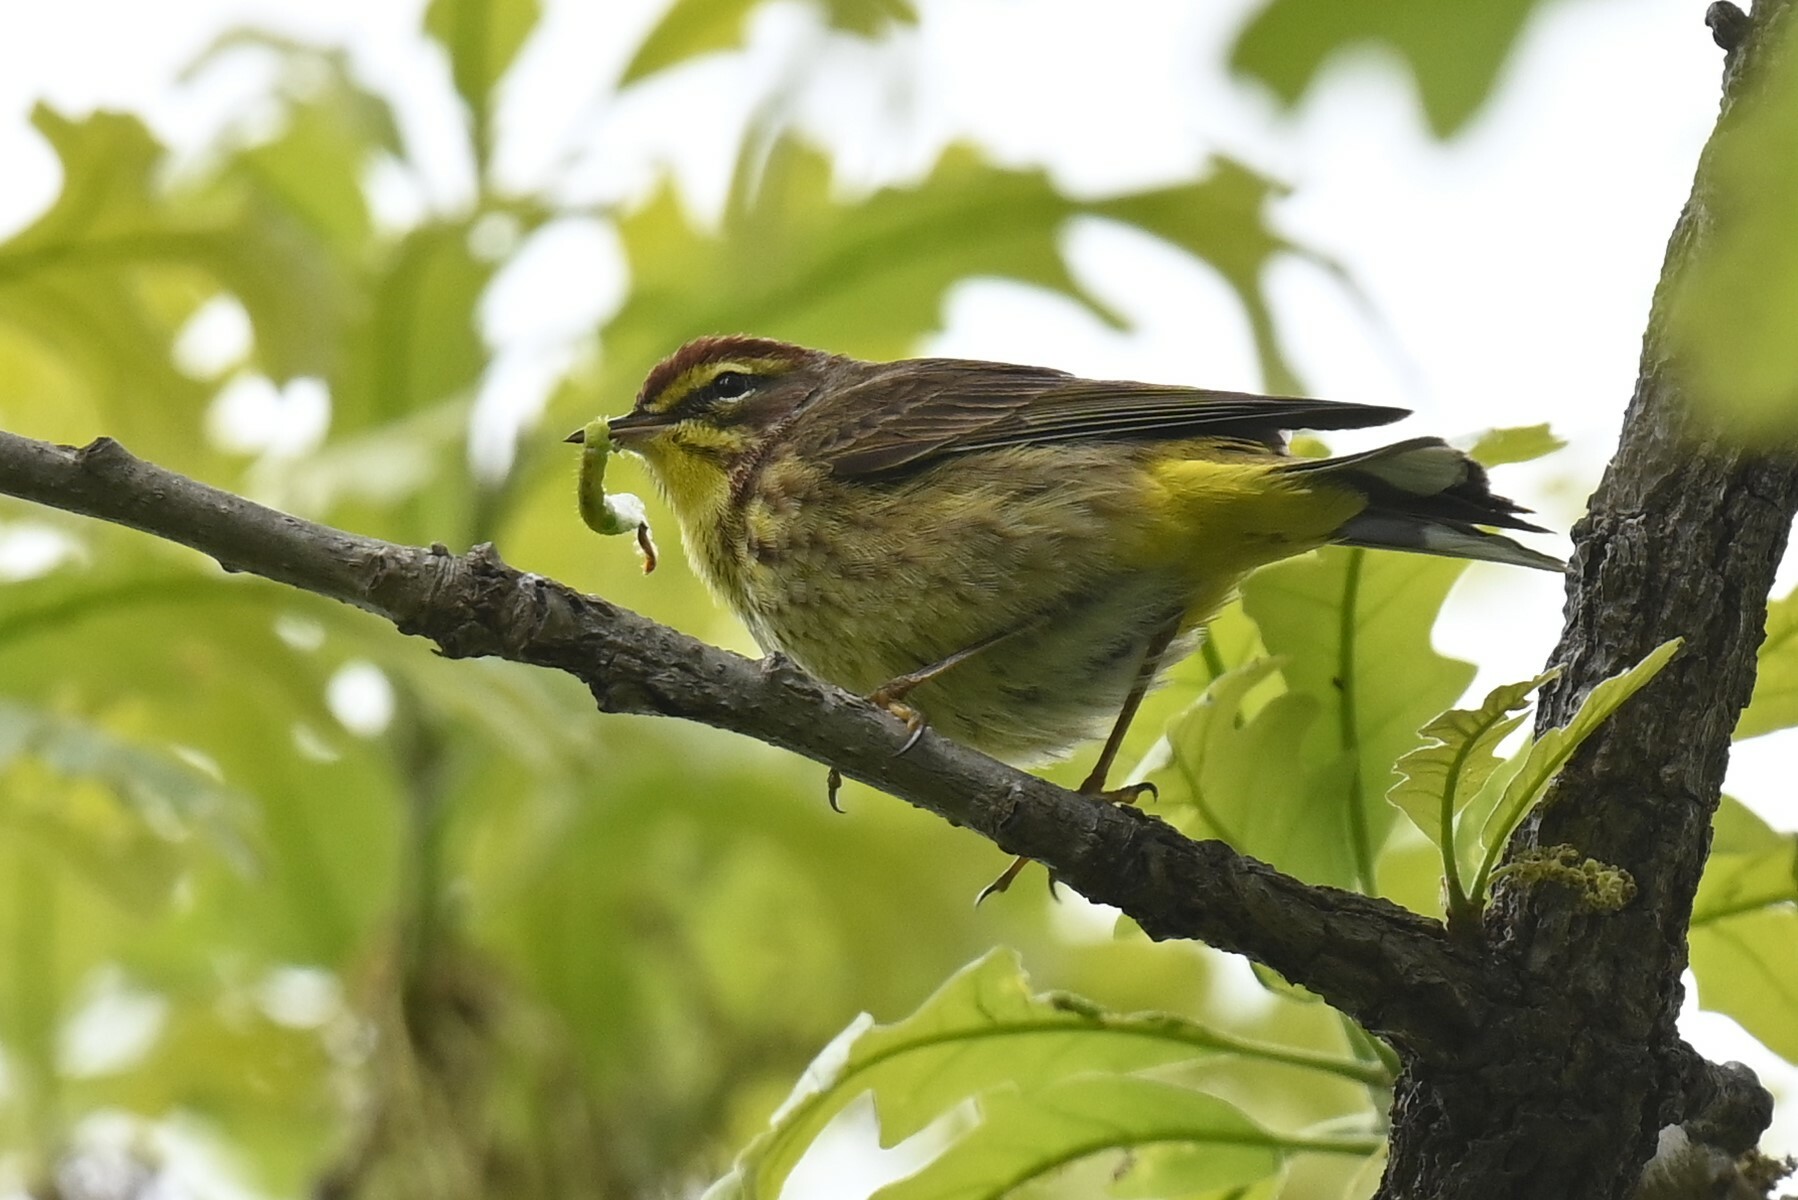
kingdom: Animalia
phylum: Chordata
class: Aves
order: Passeriformes
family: Parulidae
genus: Setophaga
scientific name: Setophaga palmarum
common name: Palm warbler
